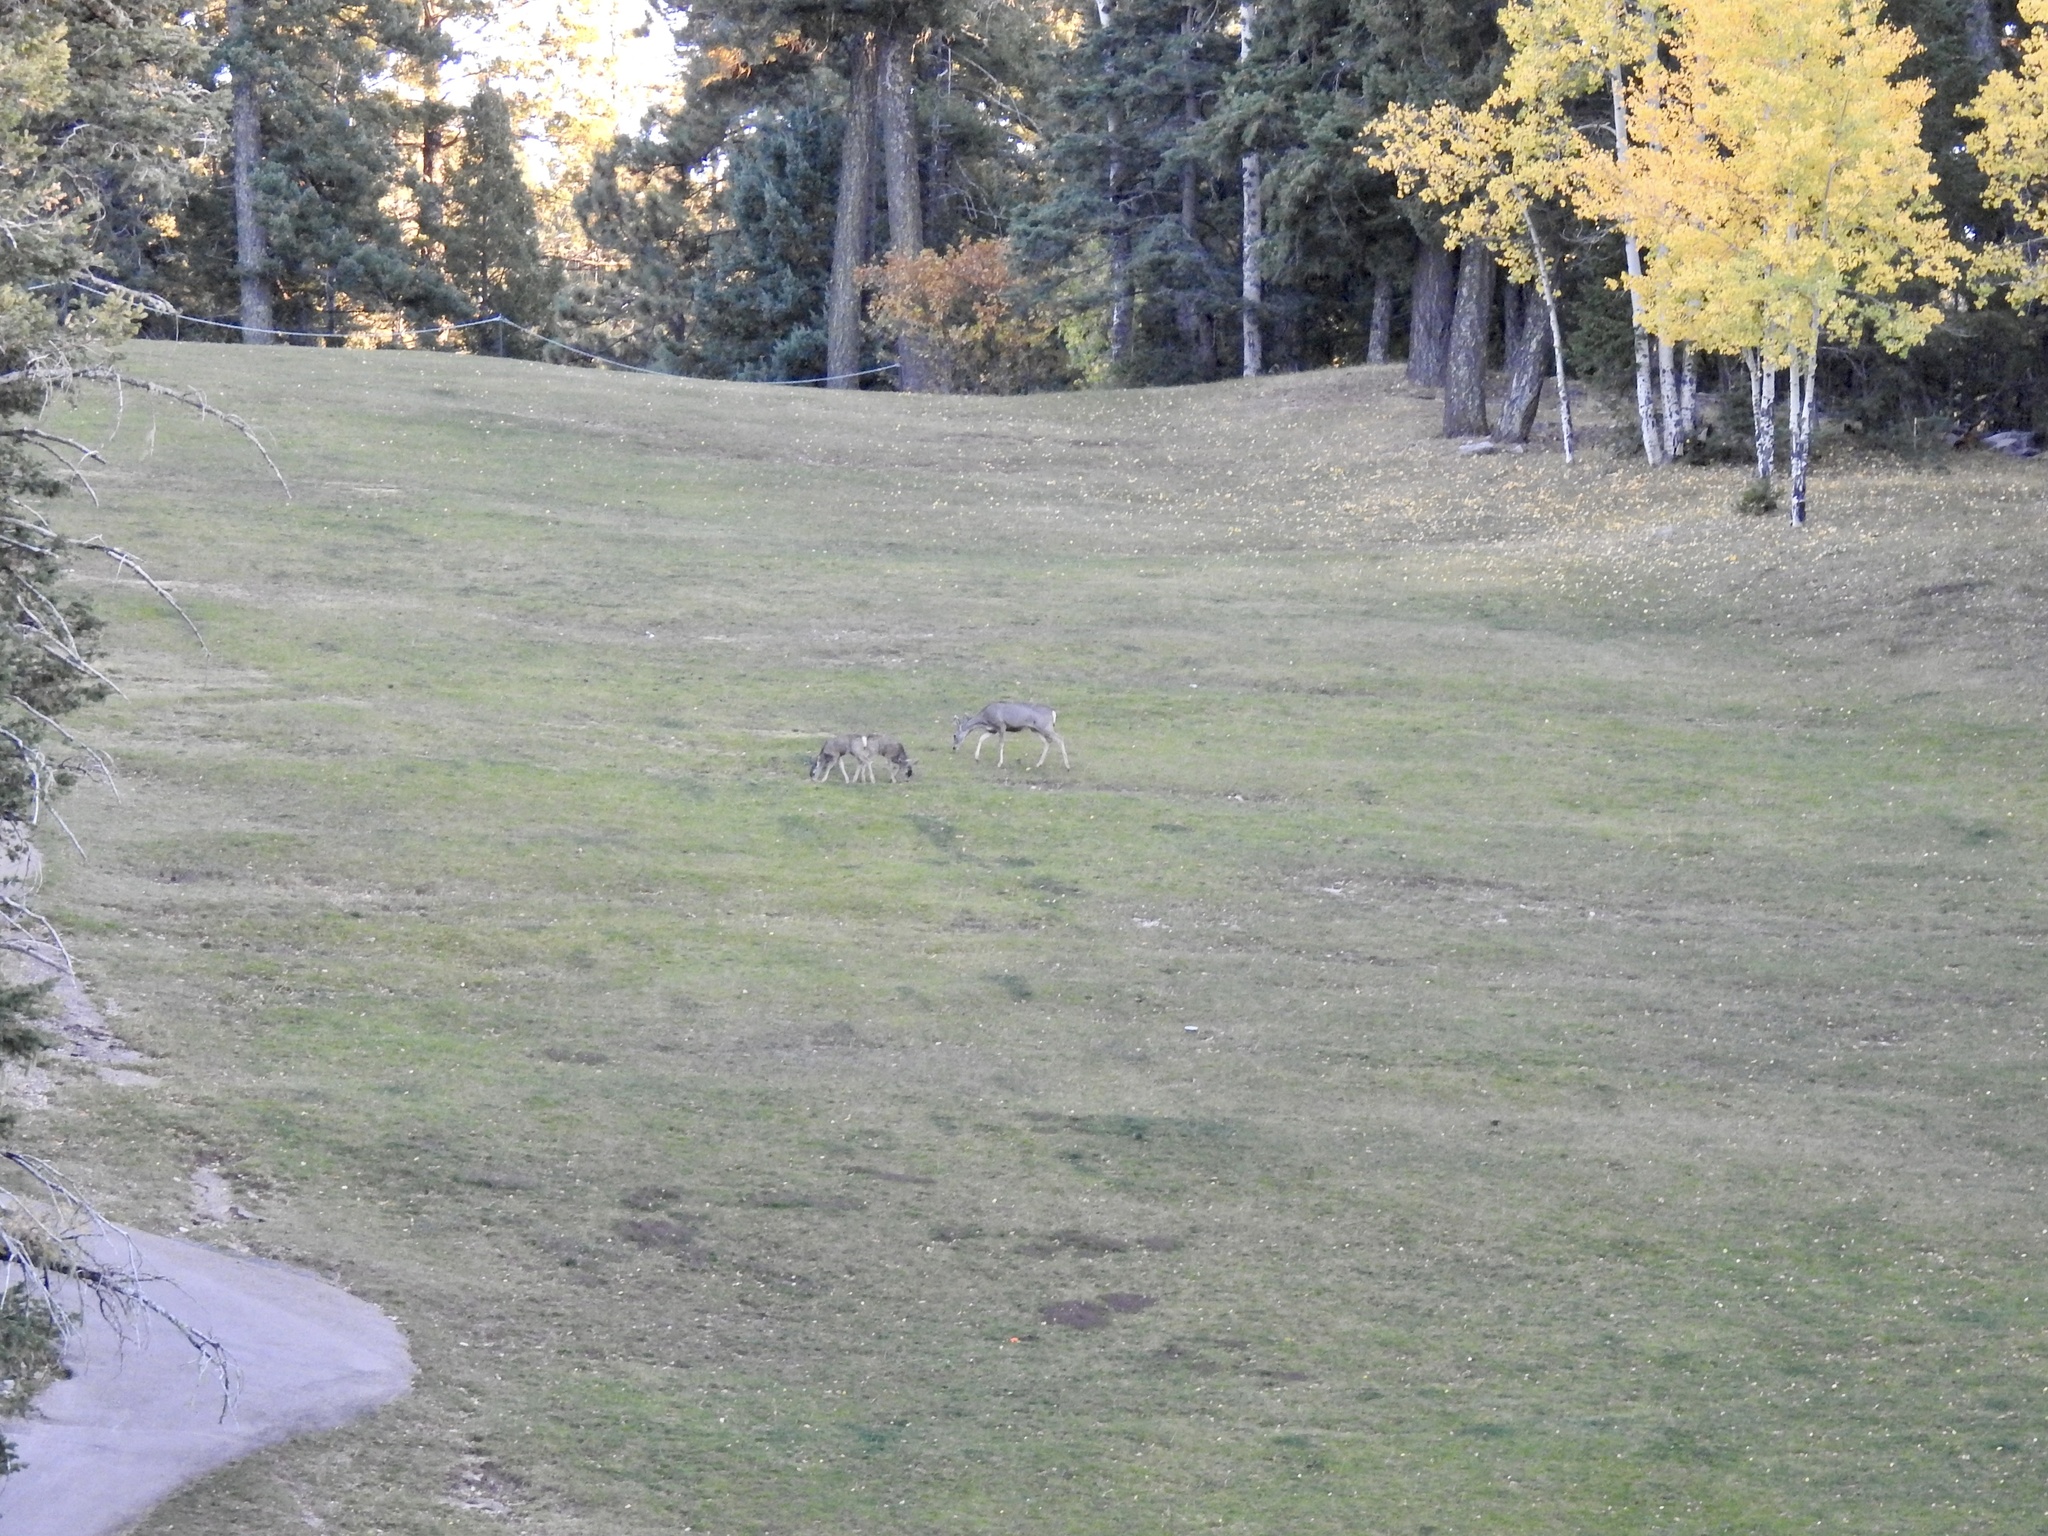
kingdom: Animalia
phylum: Chordata
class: Mammalia
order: Artiodactyla
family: Cervidae
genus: Odocoileus
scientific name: Odocoileus hemionus
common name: Mule deer
